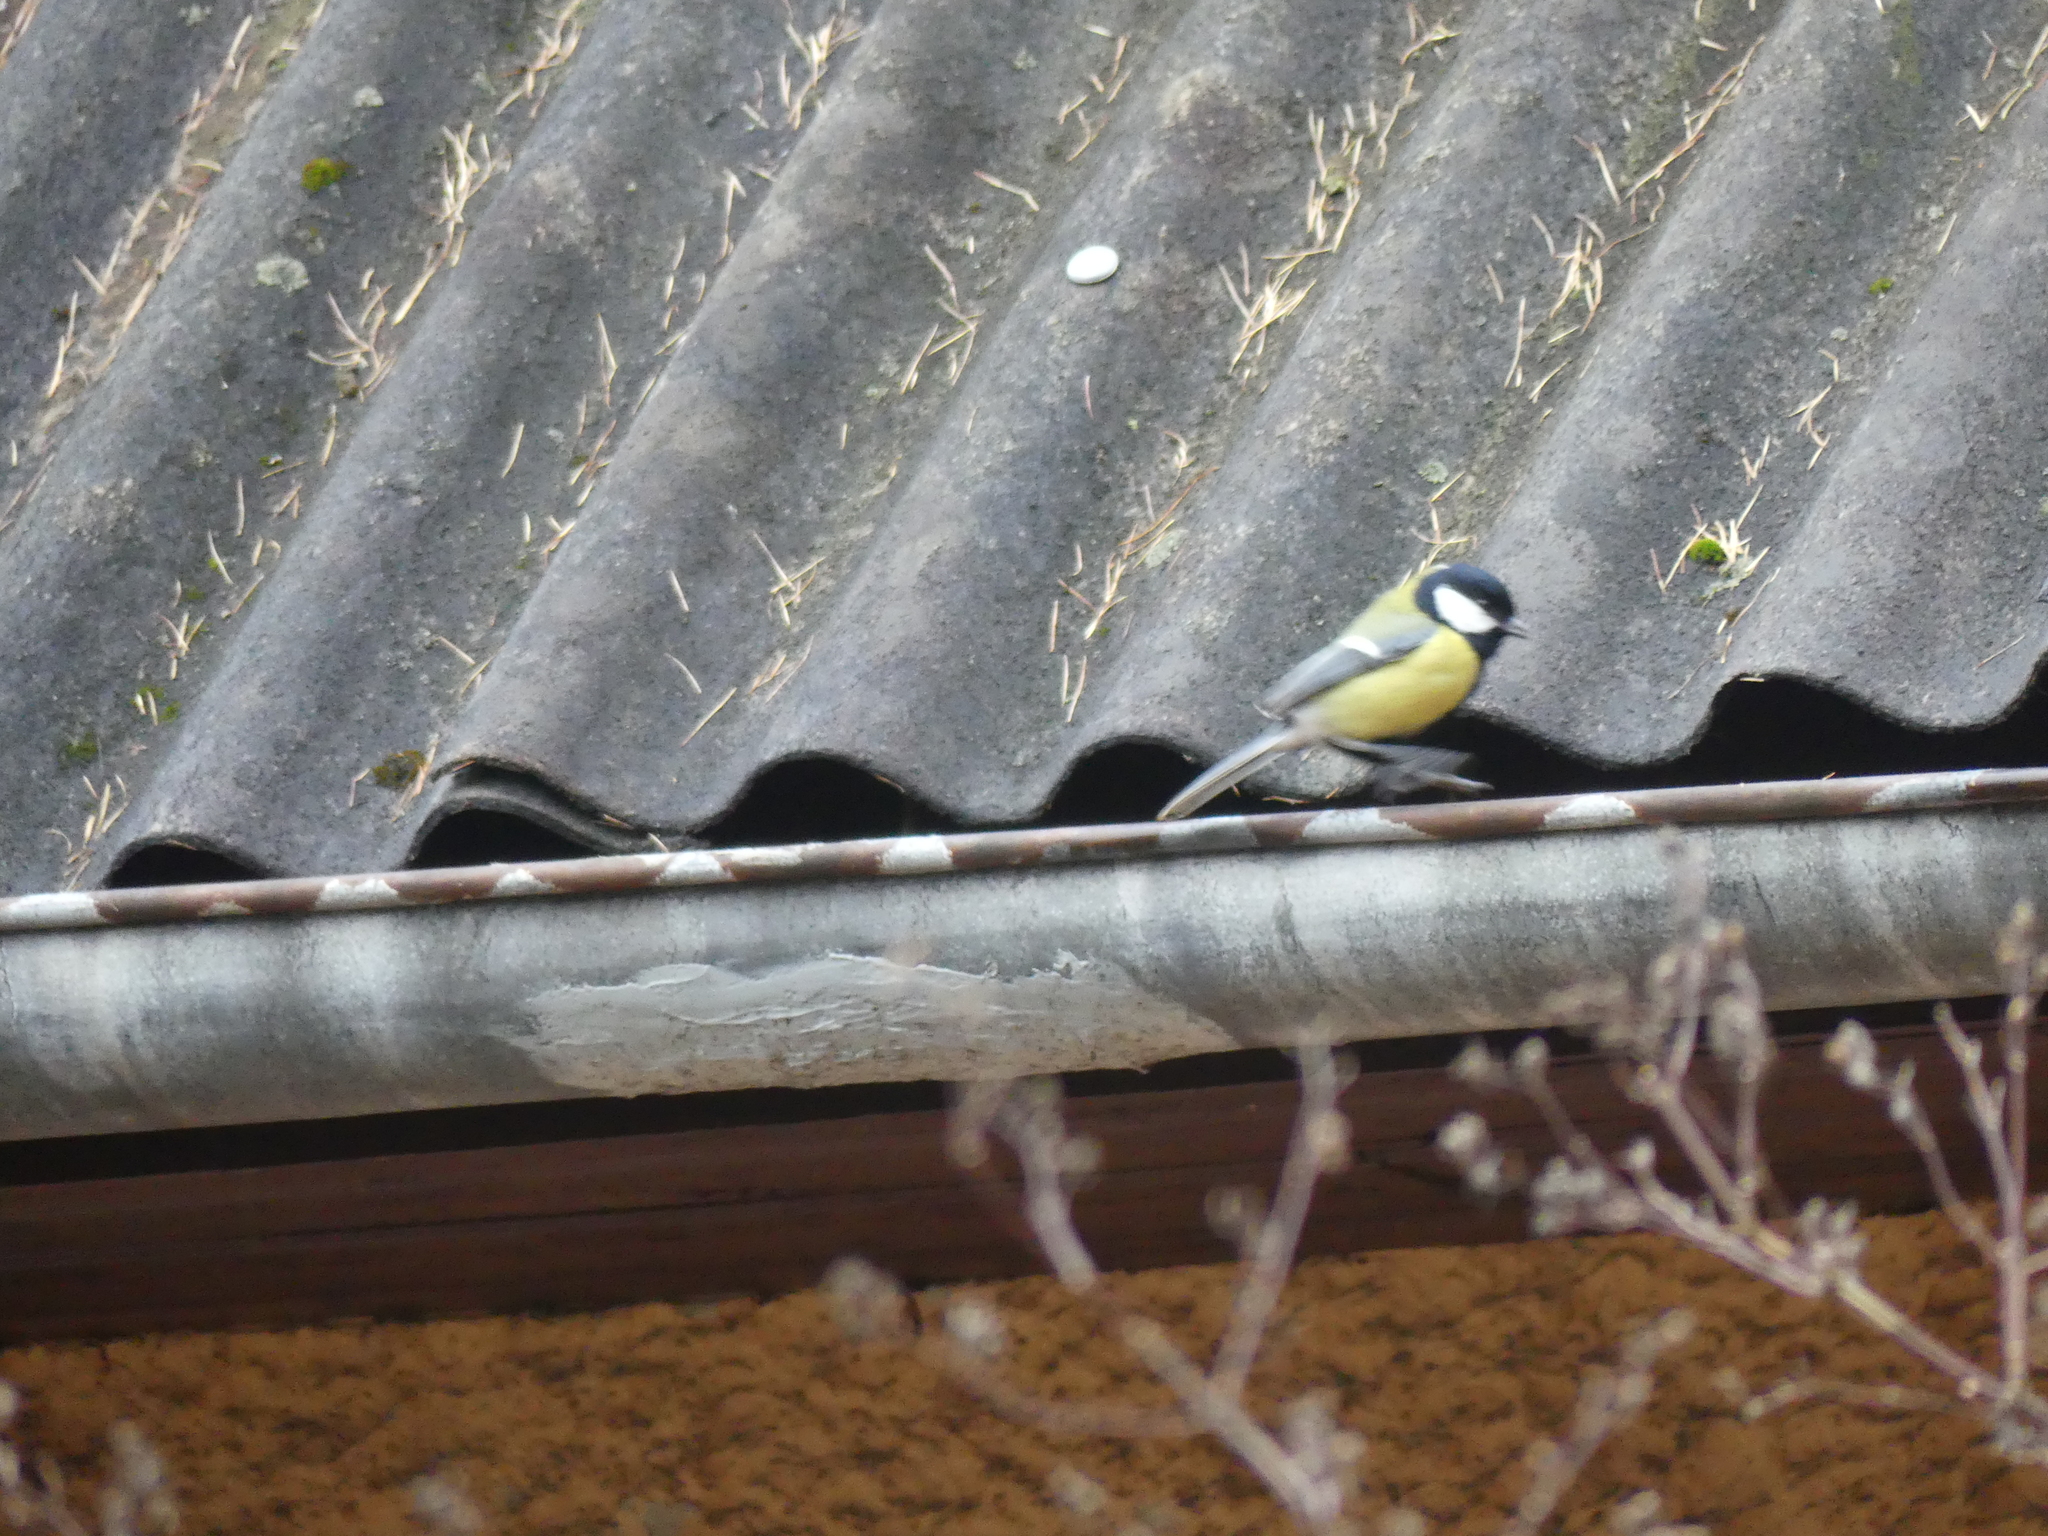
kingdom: Animalia
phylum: Chordata
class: Aves
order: Passeriformes
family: Paridae
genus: Parus
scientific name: Parus major
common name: Great tit
